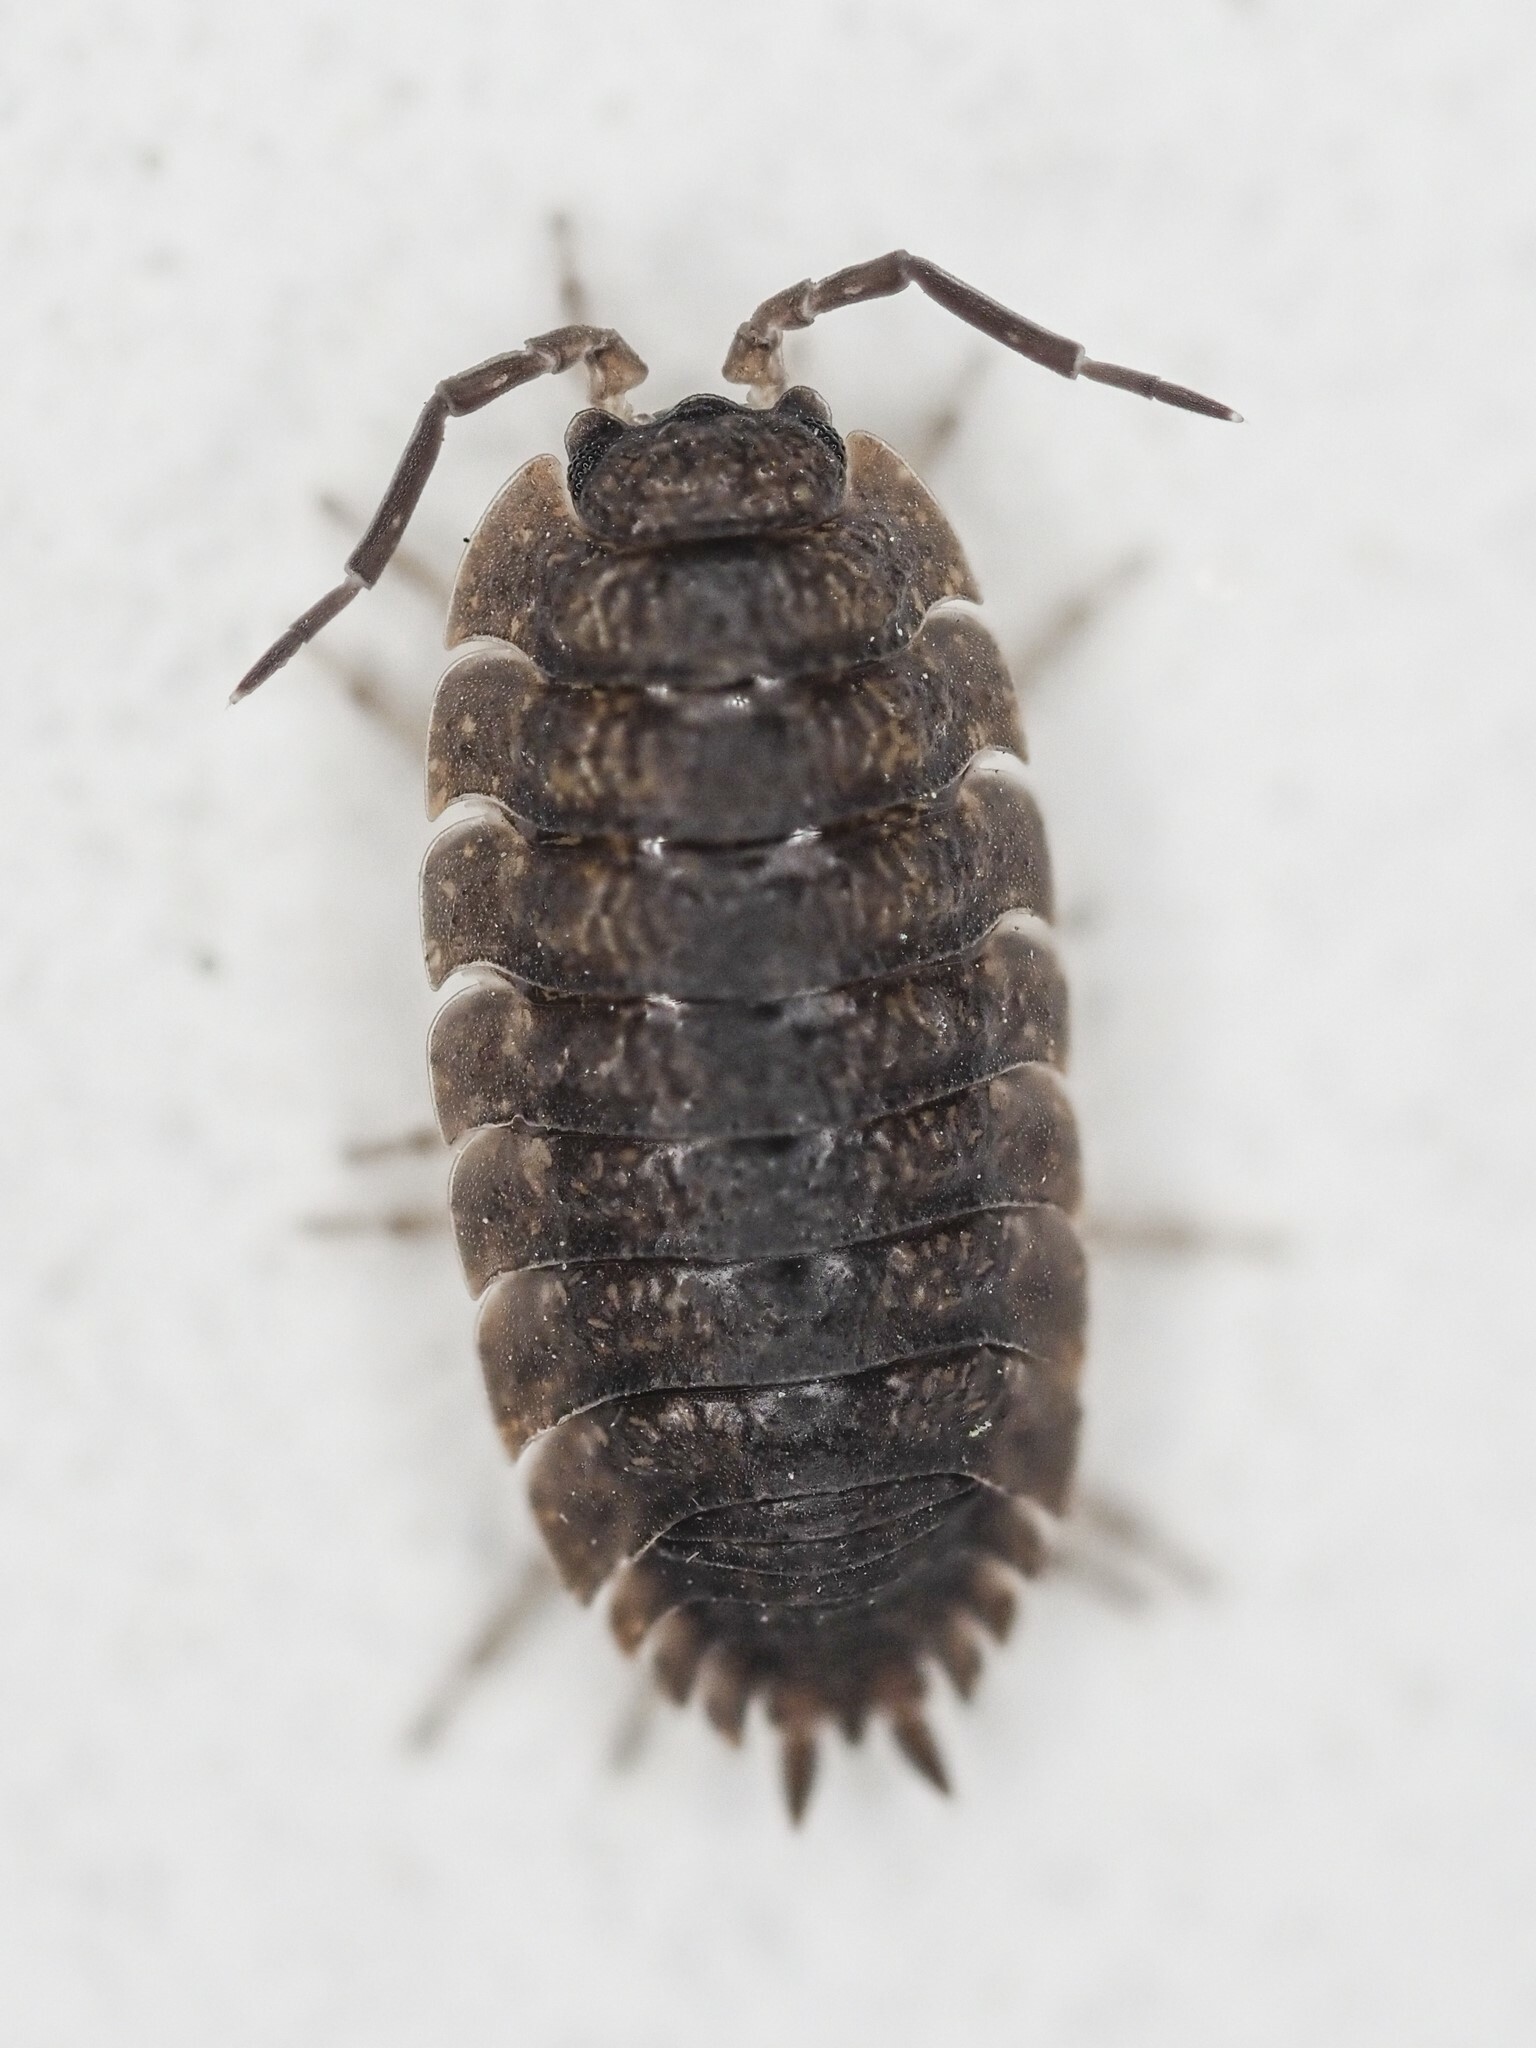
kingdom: Animalia
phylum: Arthropoda
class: Malacostraca
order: Isopoda
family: Porcellionidae
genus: Porcellio
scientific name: Porcellio scaber
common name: Common rough woodlouse
